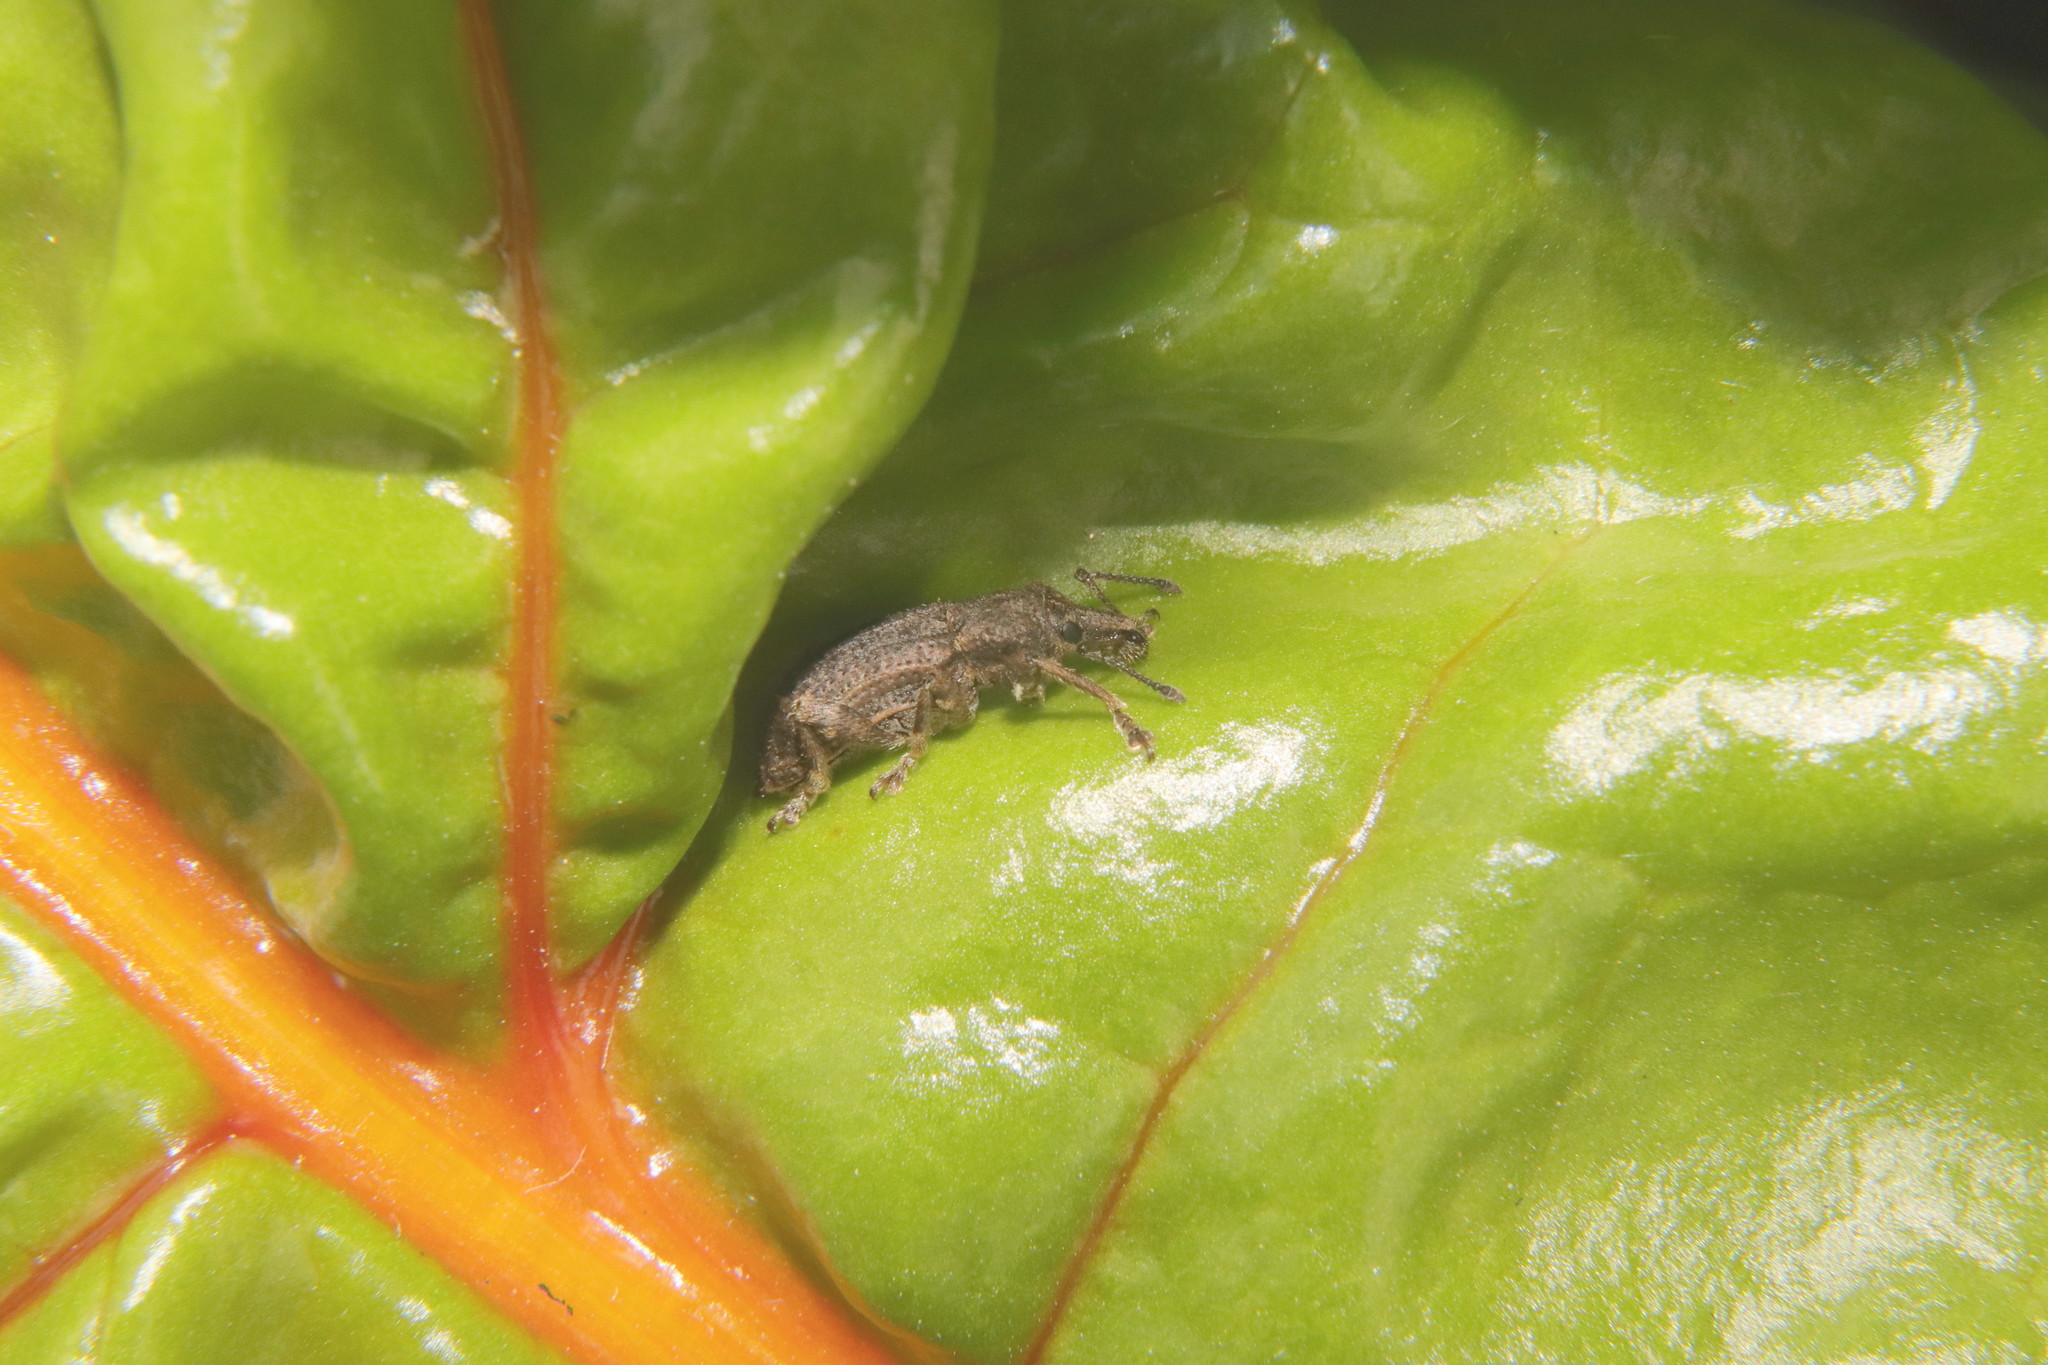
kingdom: Animalia
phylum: Arthropoda
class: Insecta
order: Coleoptera
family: Curculionidae
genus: Chalepistes
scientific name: Chalepistes rubidus
